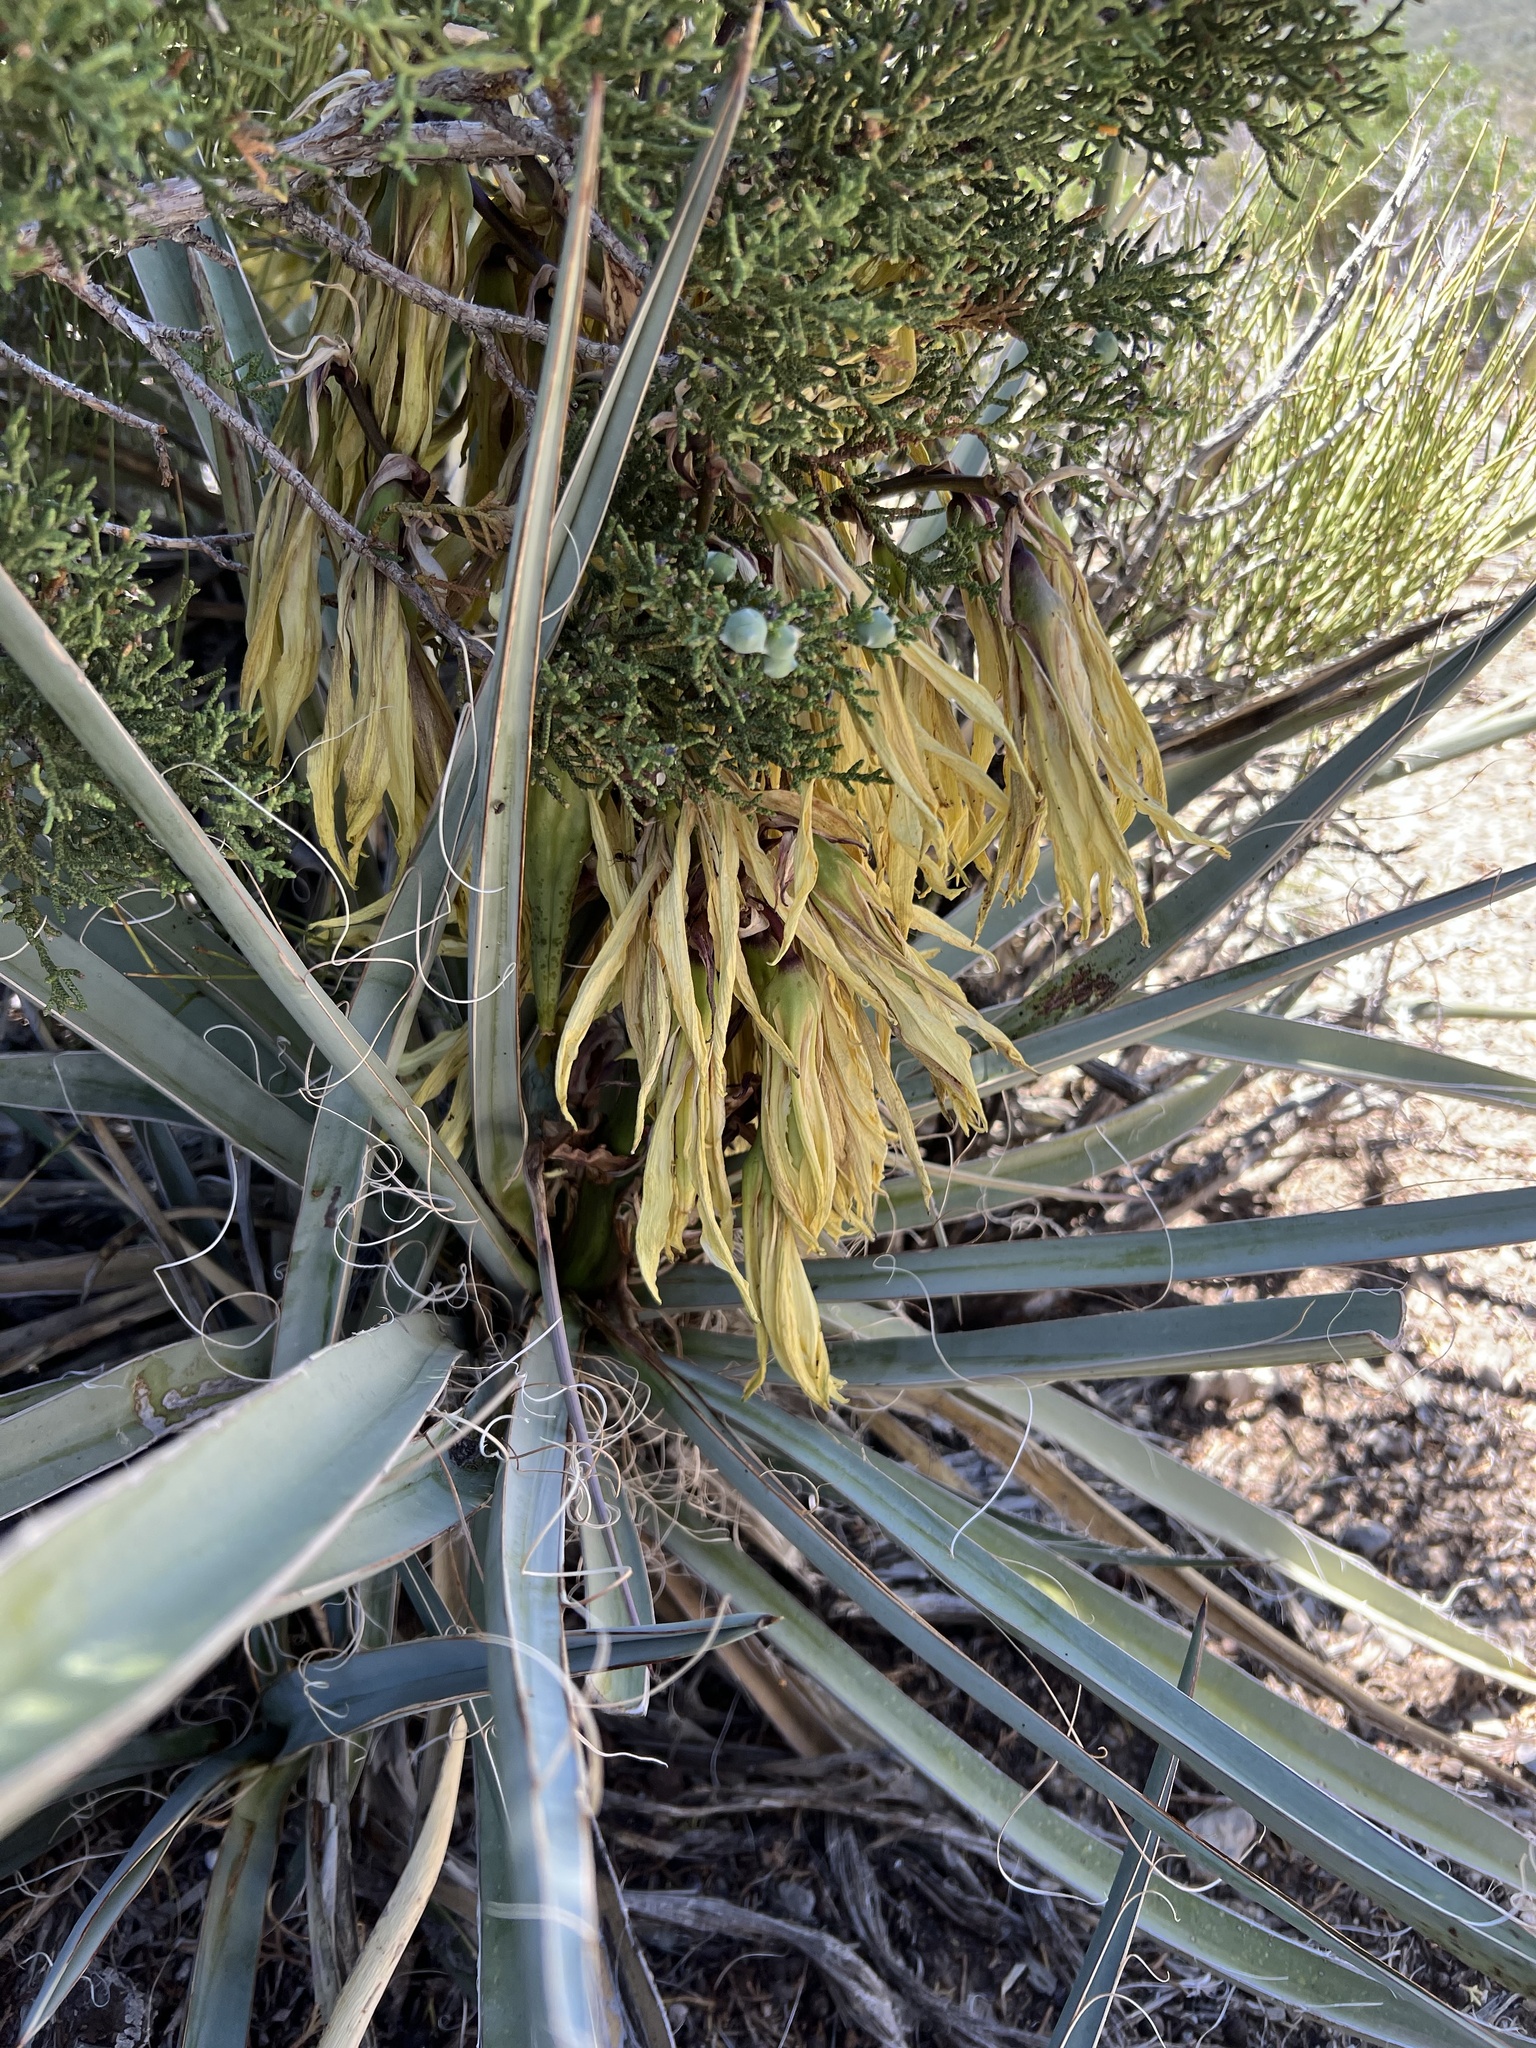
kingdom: Plantae
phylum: Tracheophyta
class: Liliopsida
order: Asparagales
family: Asparagaceae
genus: Yucca
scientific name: Yucca baccata
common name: Banana yucca
